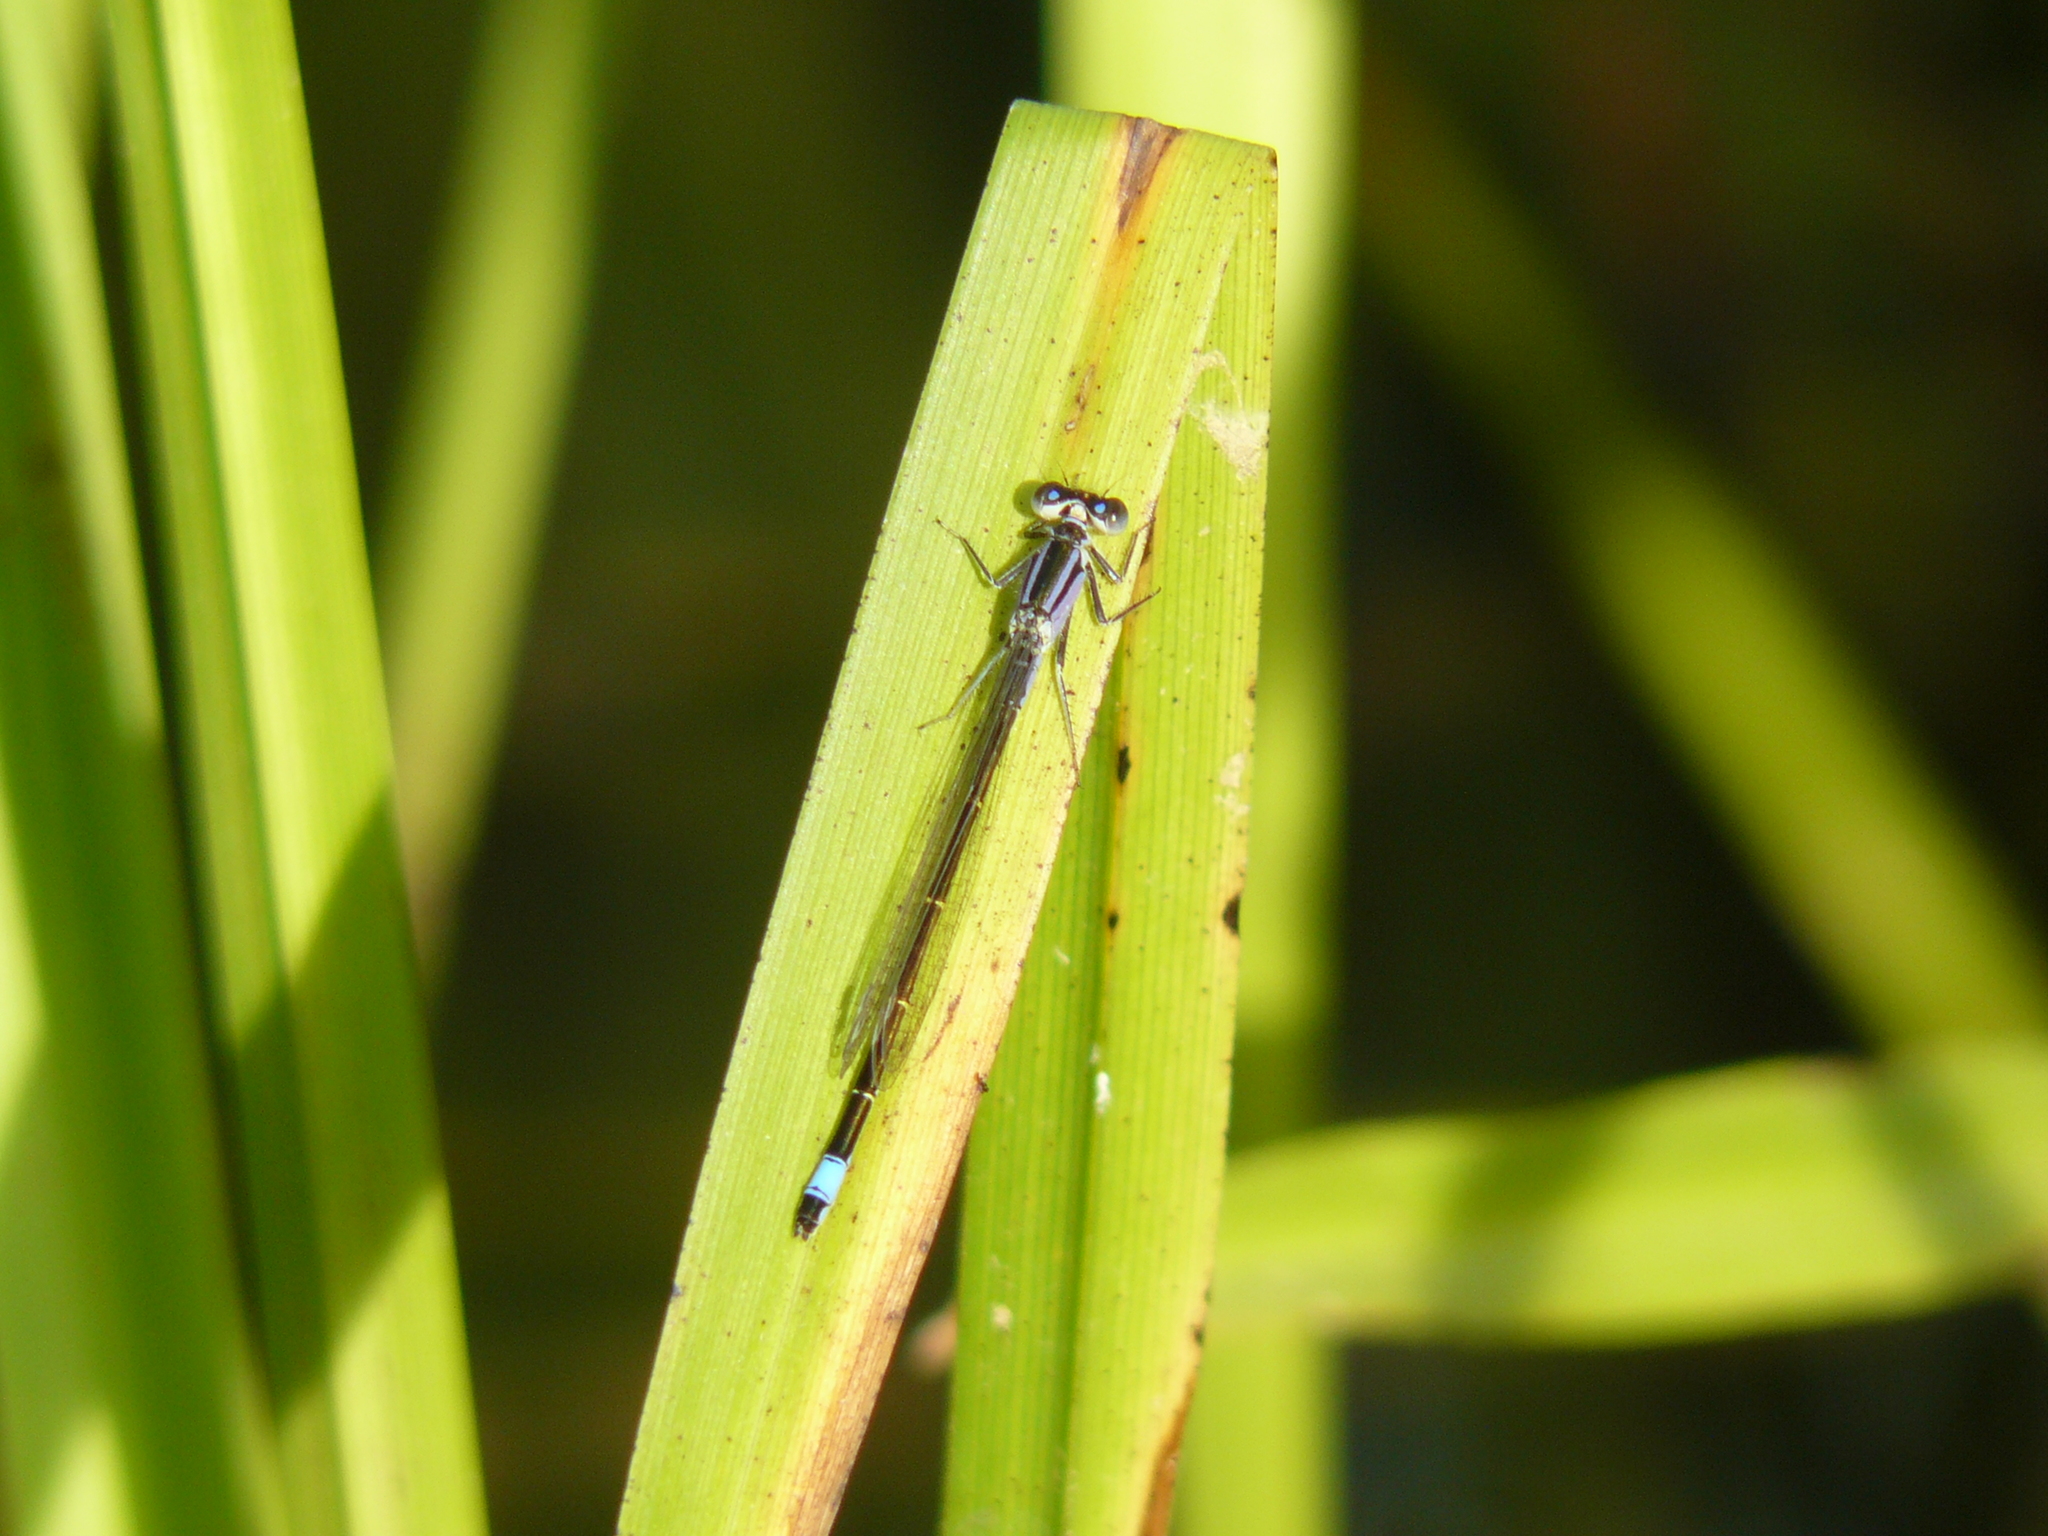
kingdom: Animalia
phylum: Arthropoda
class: Insecta
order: Odonata
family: Coenagrionidae
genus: Ischnura
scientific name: Ischnura elegans
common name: Blue-tailed damselfly
